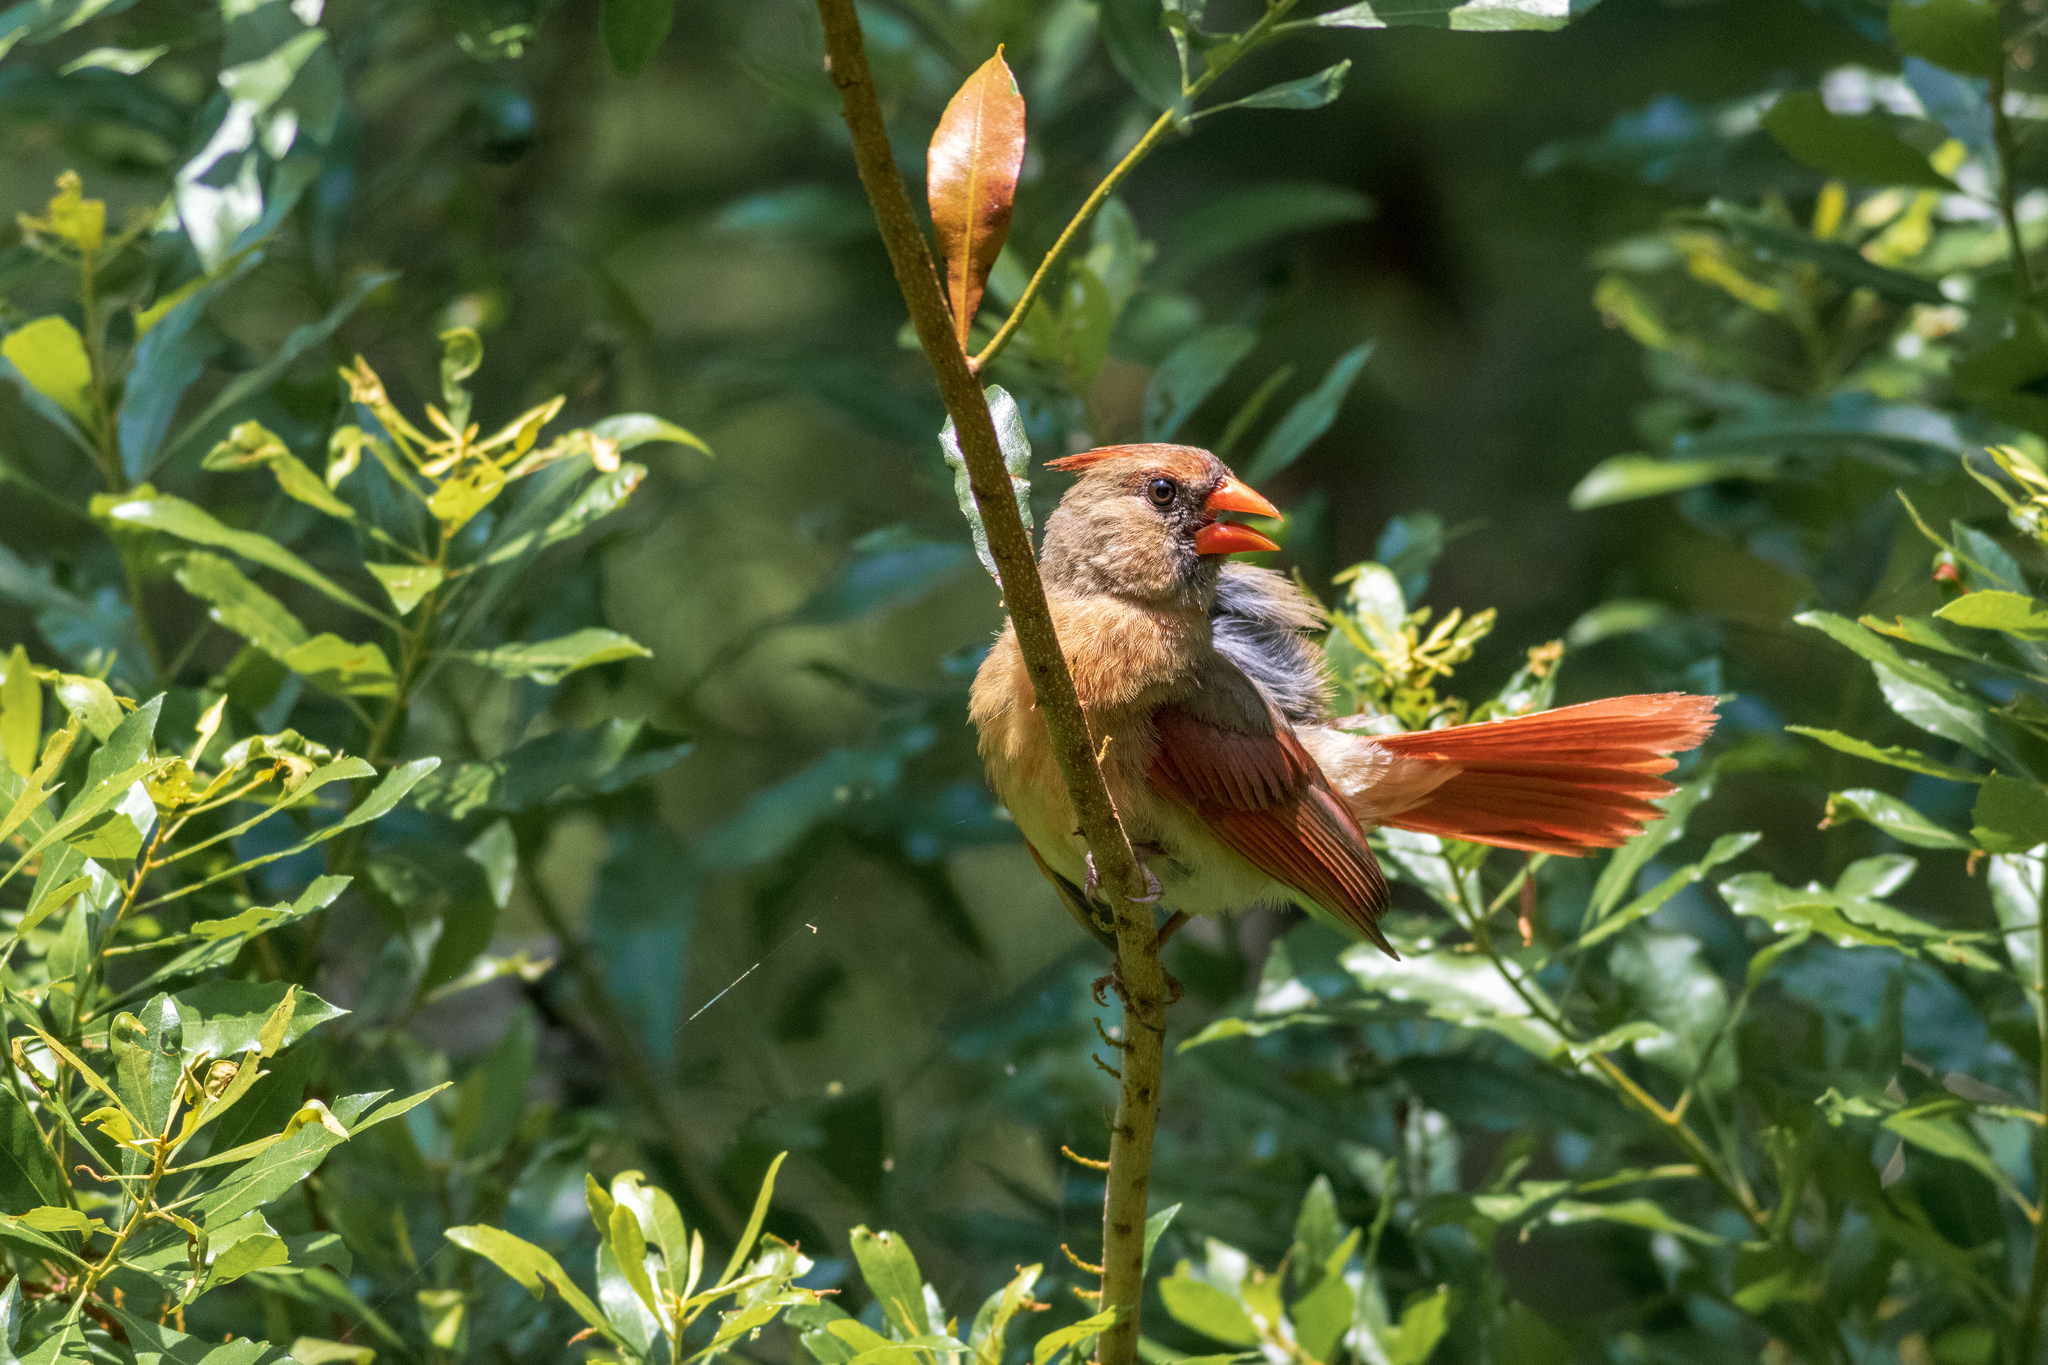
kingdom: Animalia
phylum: Chordata
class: Aves
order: Passeriformes
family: Cardinalidae
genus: Cardinalis
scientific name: Cardinalis cardinalis
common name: Northern cardinal
